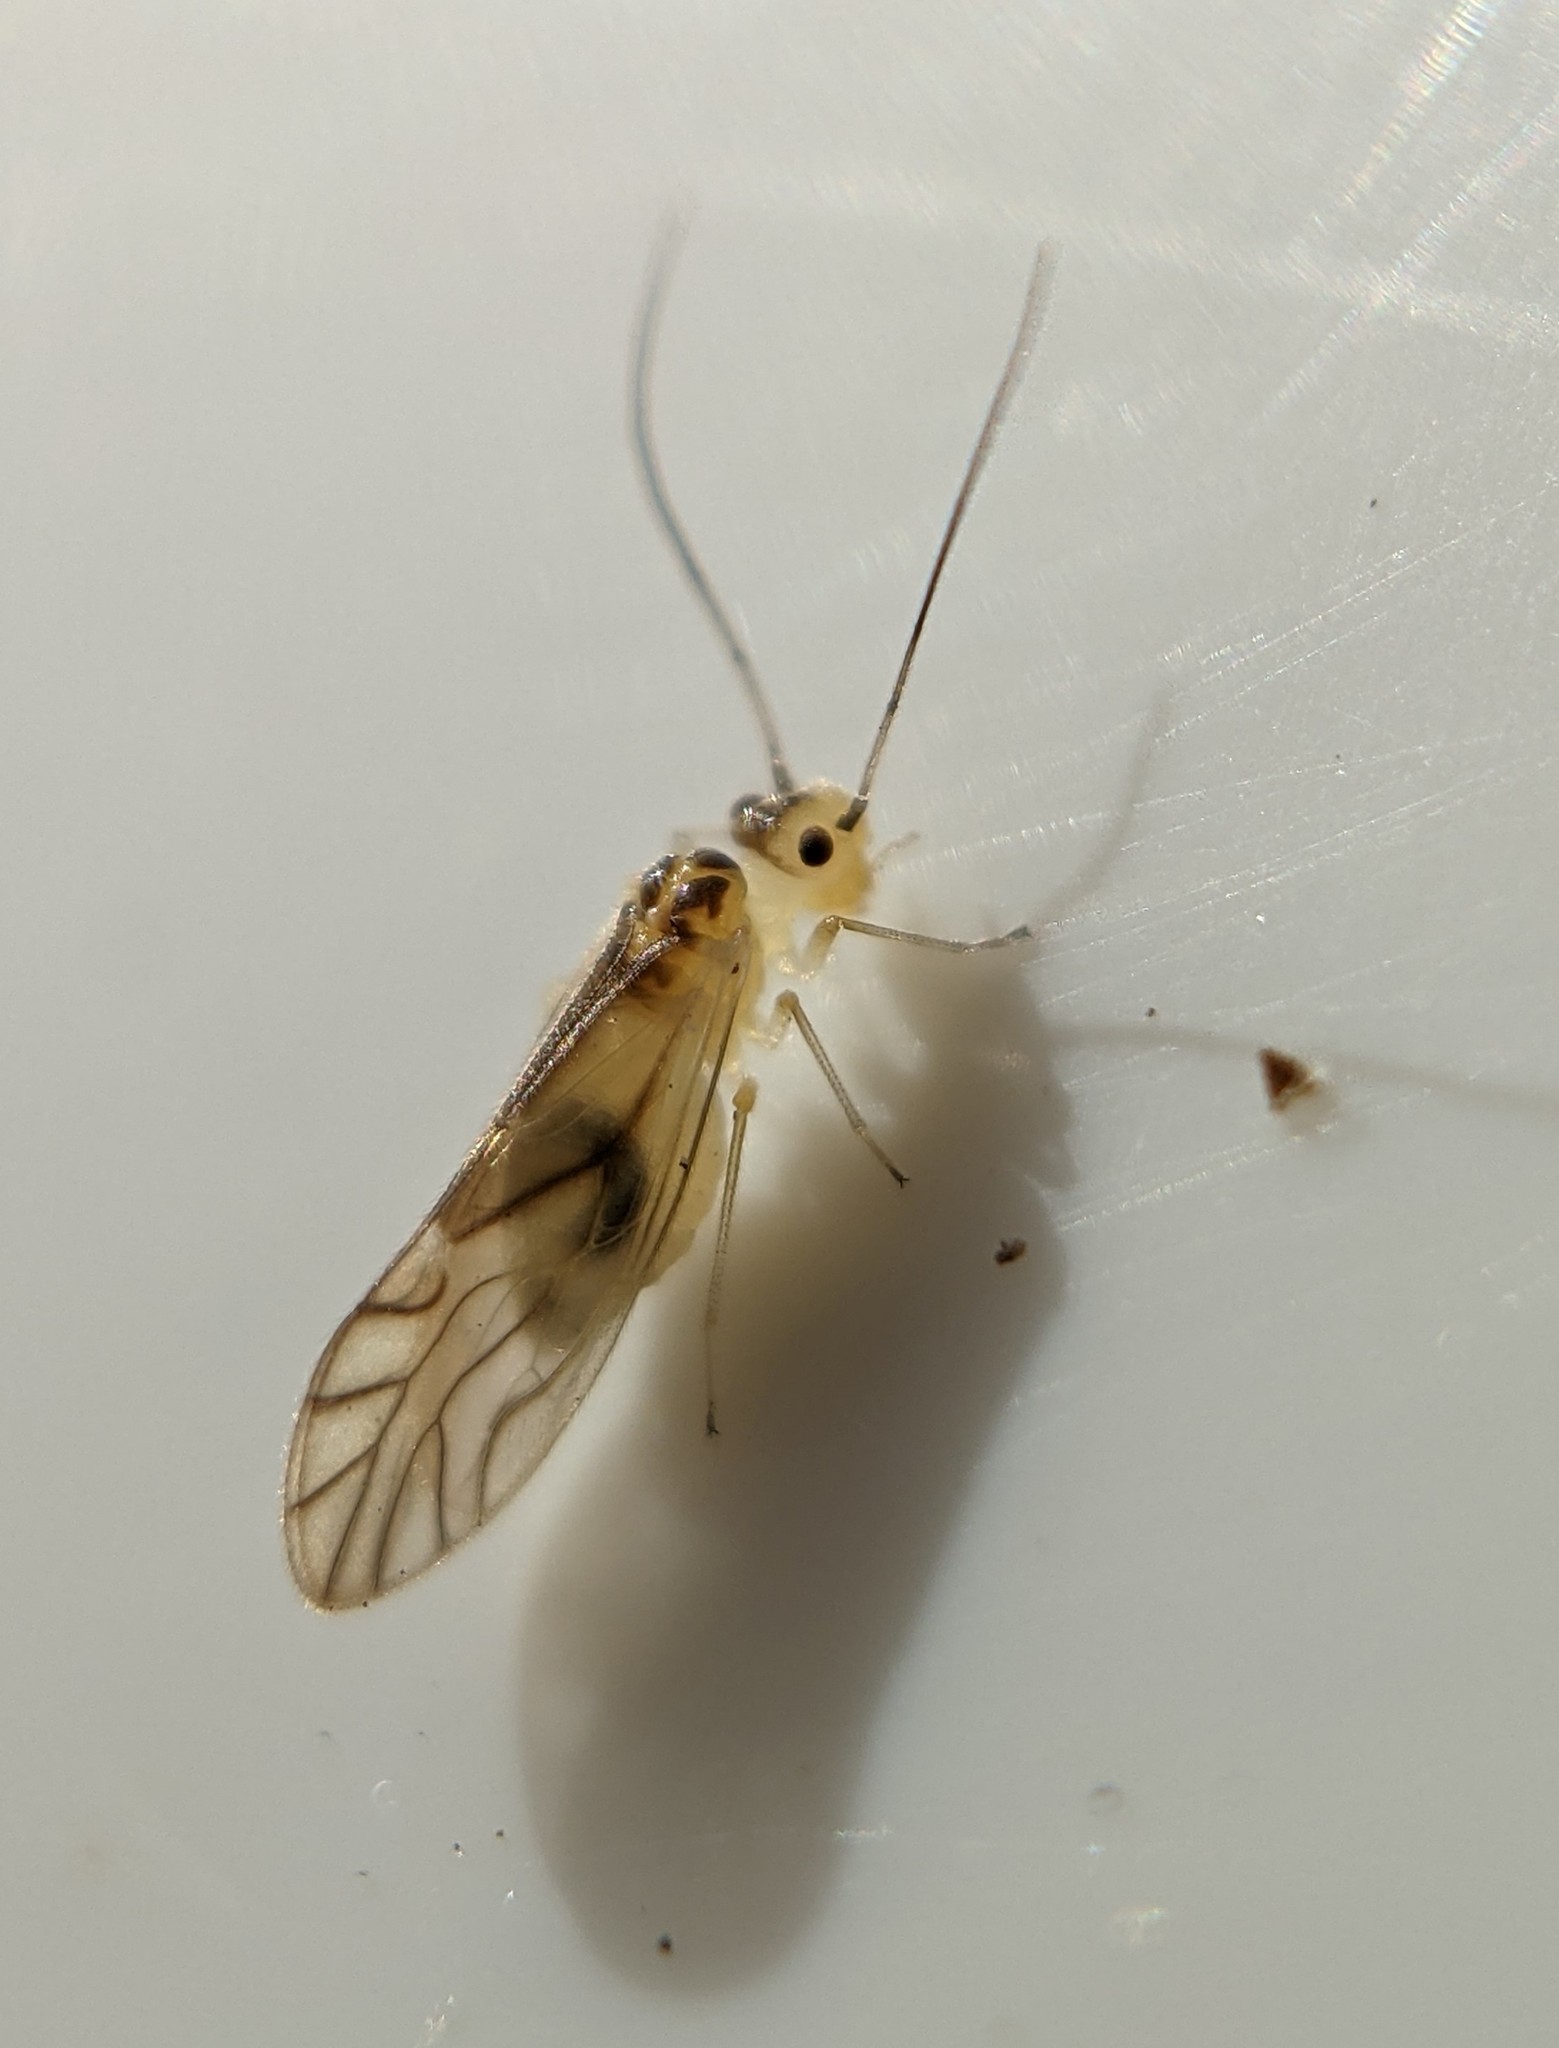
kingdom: Animalia
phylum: Arthropoda
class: Insecta
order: Psocodea
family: Caeciliusidae
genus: Valenzuela
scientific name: Valenzuela flavidus
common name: Yellow barklouse
